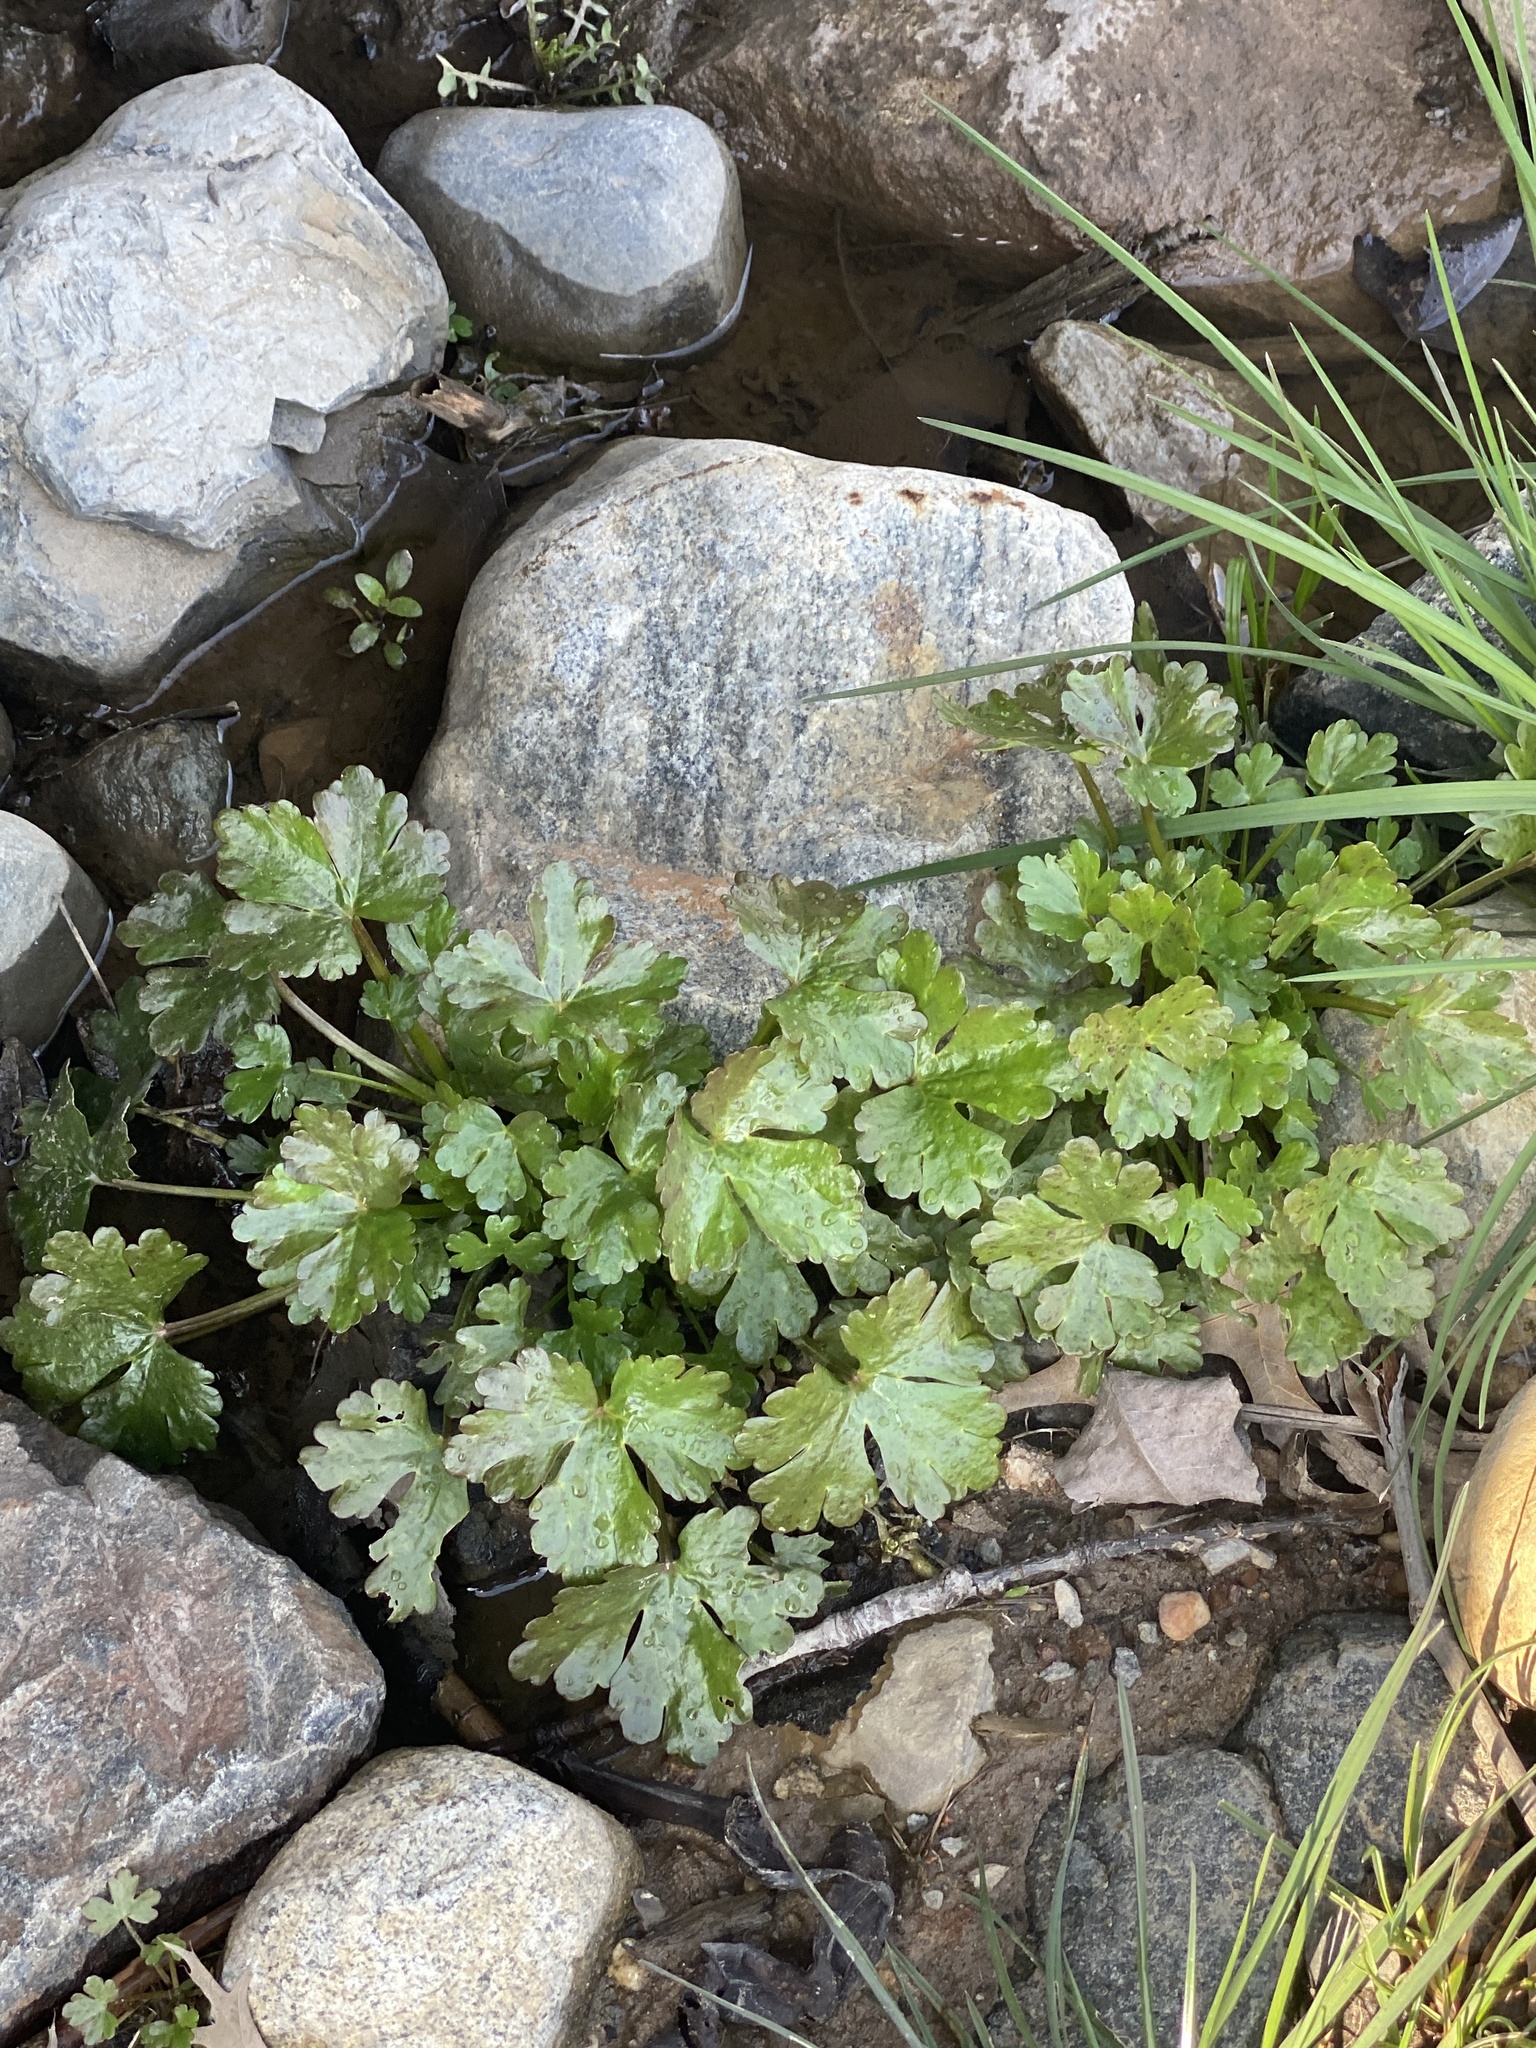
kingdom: Plantae
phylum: Tracheophyta
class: Magnoliopsida
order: Ranunculales
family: Ranunculaceae
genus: Ranunculus
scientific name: Ranunculus sceleratus
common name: Celery-leaved buttercup
